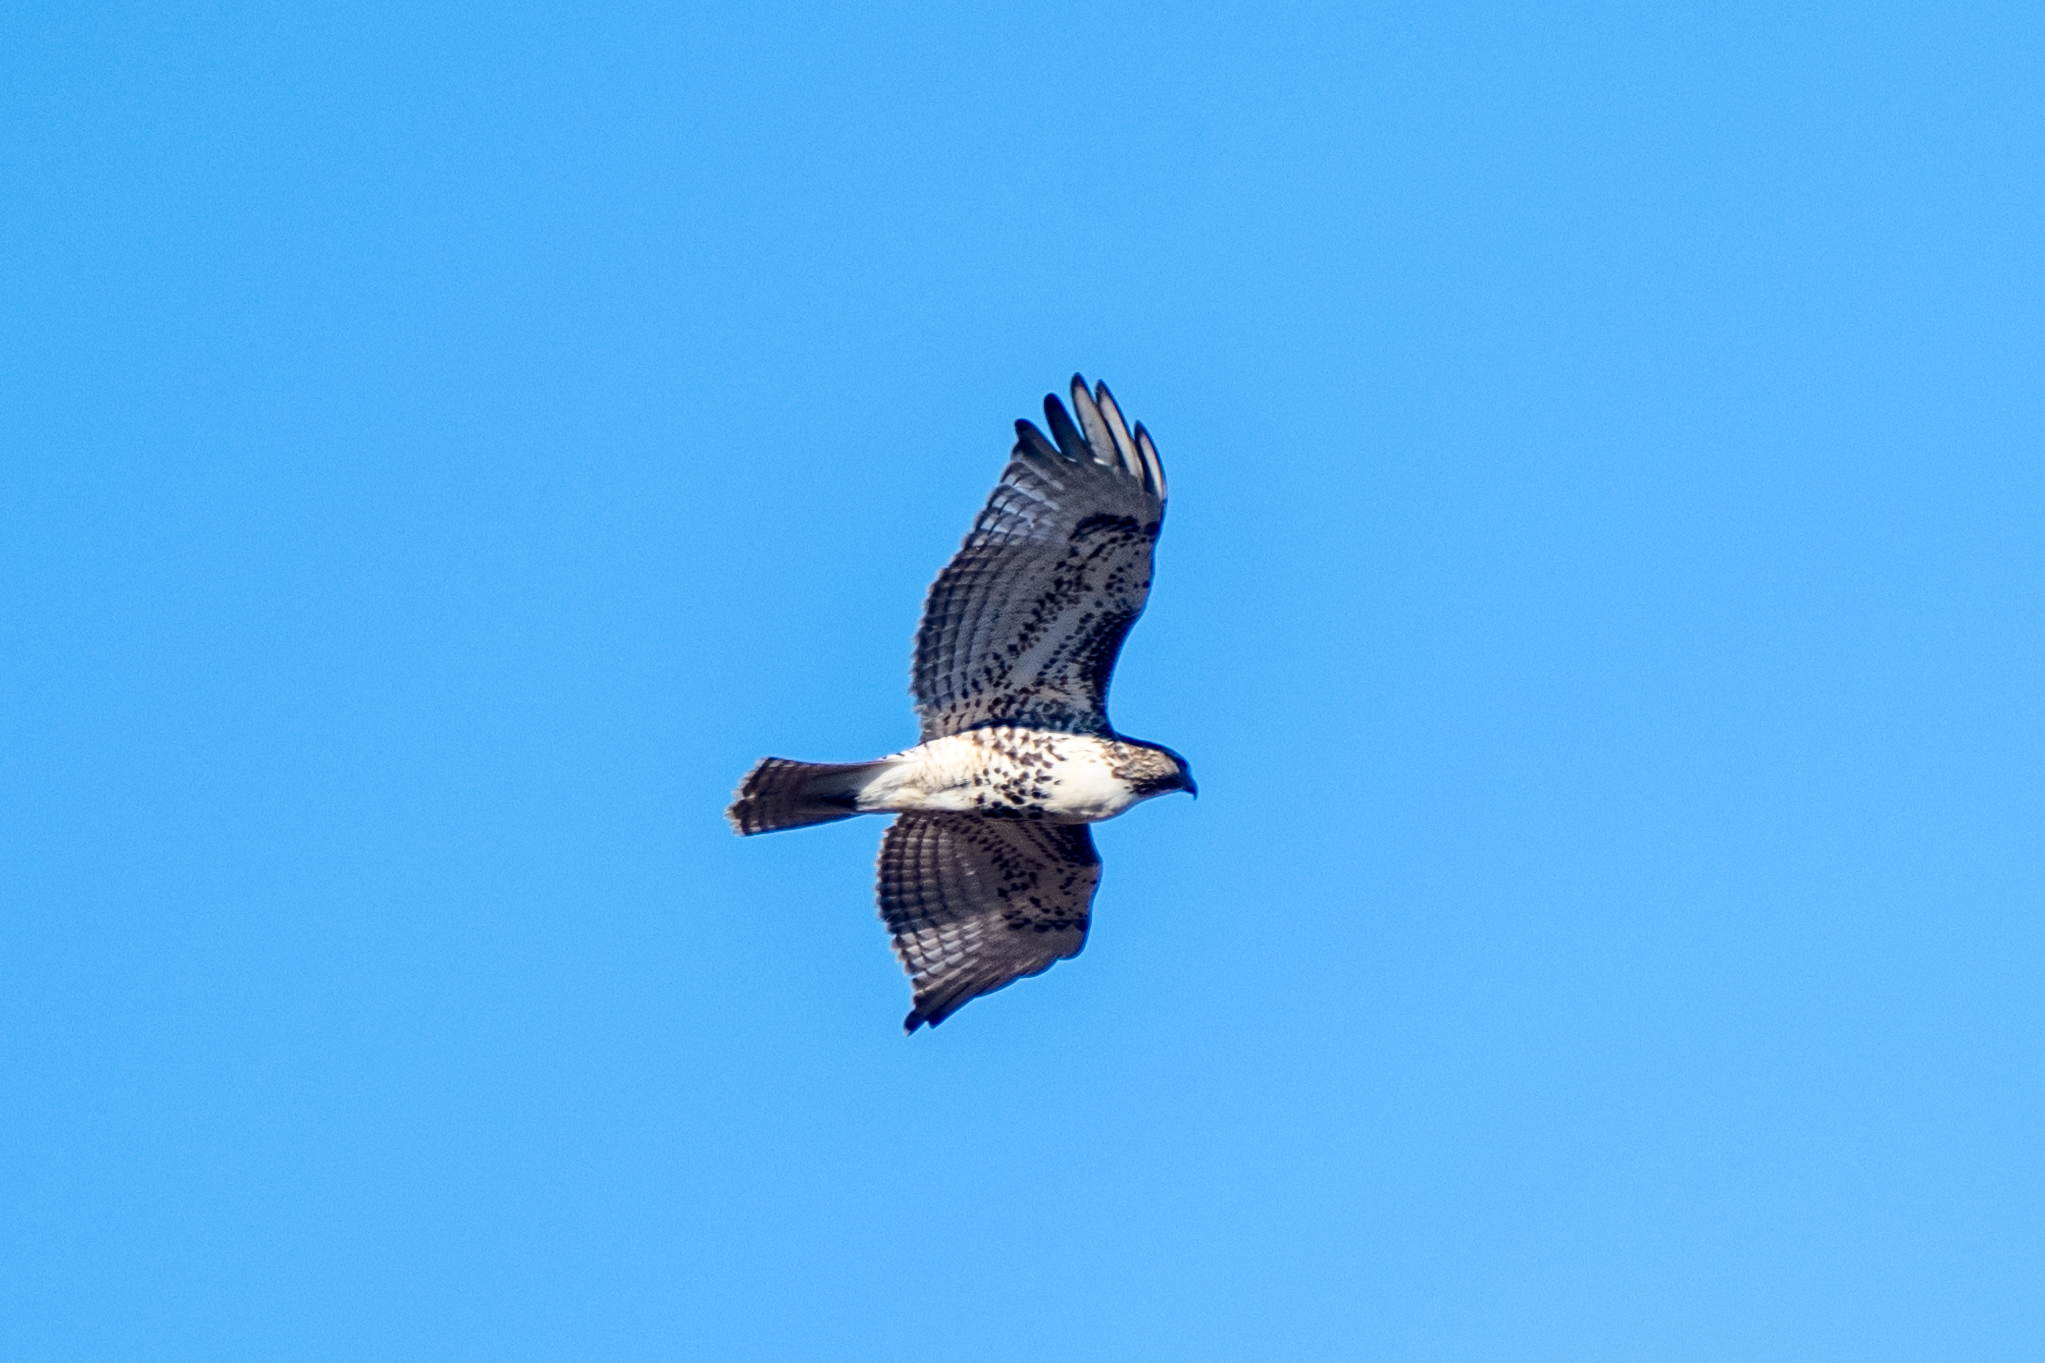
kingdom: Animalia
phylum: Chordata
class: Aves
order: Accipitriformes
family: Accipitridae
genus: Buteo
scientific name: Buteo jamaicensis
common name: Red-tailed hawk
